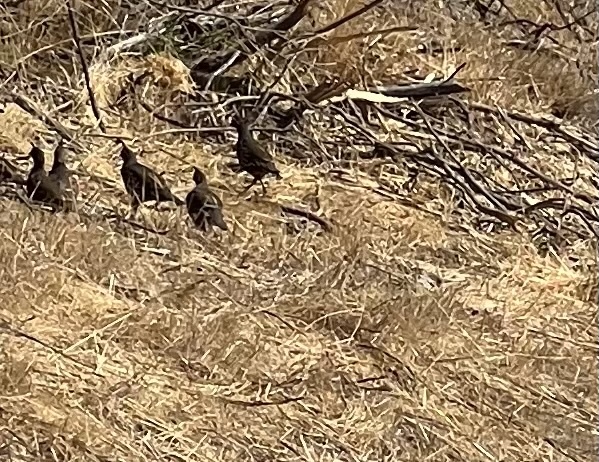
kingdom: Animalia
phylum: Chordata
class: Aves
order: Galliformes
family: Odontophoridae
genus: Callipepla
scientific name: Callipepla californica
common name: California quail
